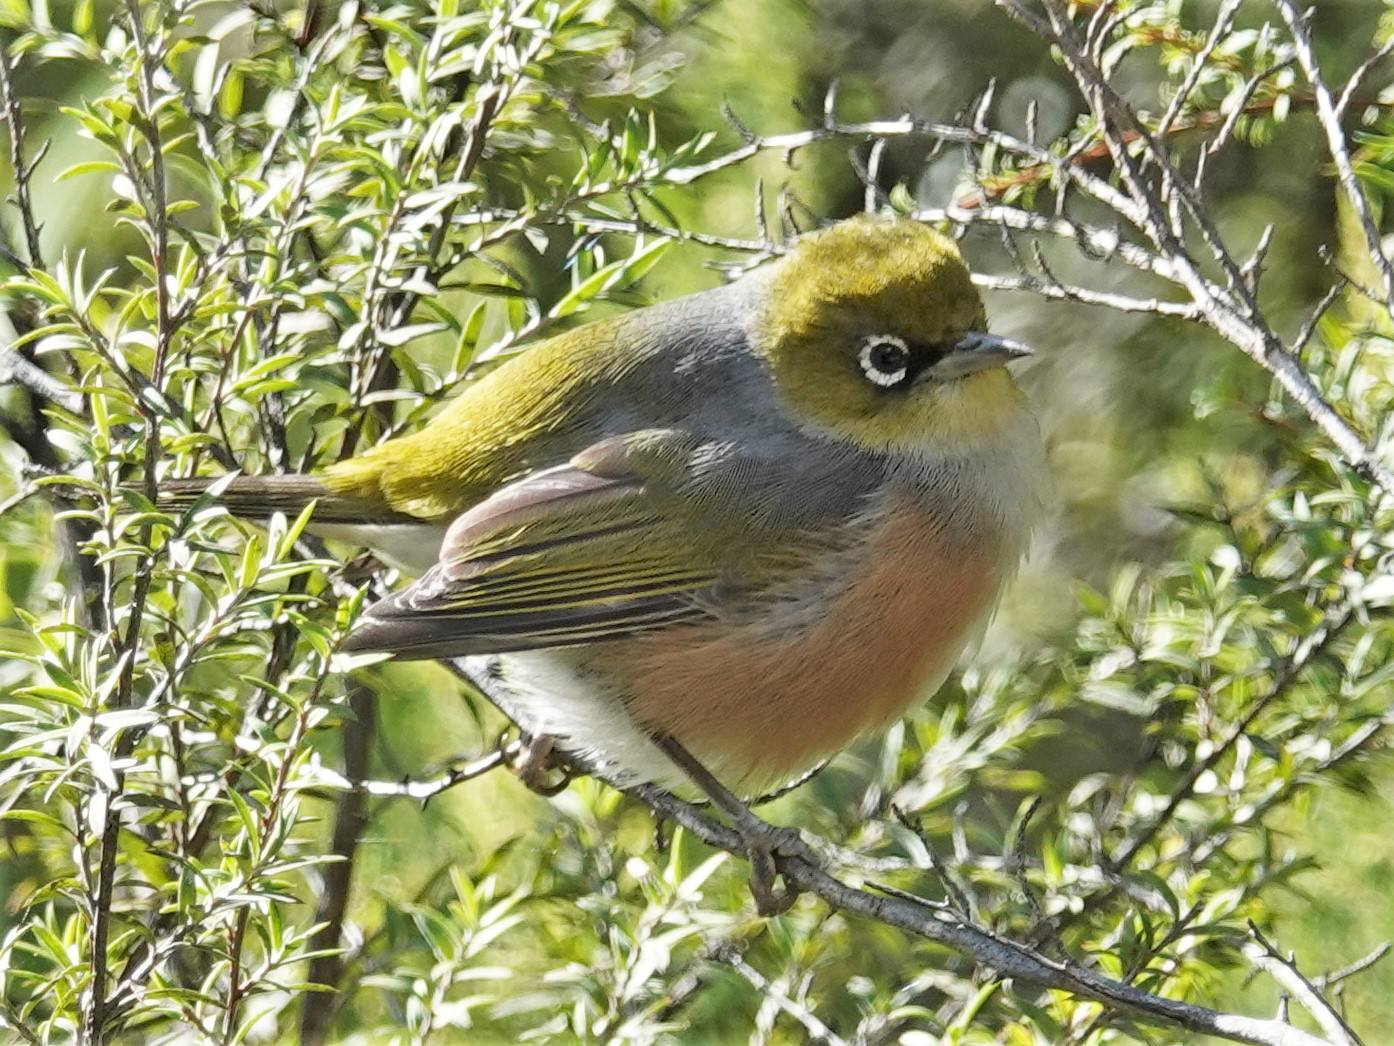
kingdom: Animalia
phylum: Chordata
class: Aves
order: Passeriformes
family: Zosteropidae
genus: Zosterops
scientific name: Zosterops lateralis
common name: Silvereye
